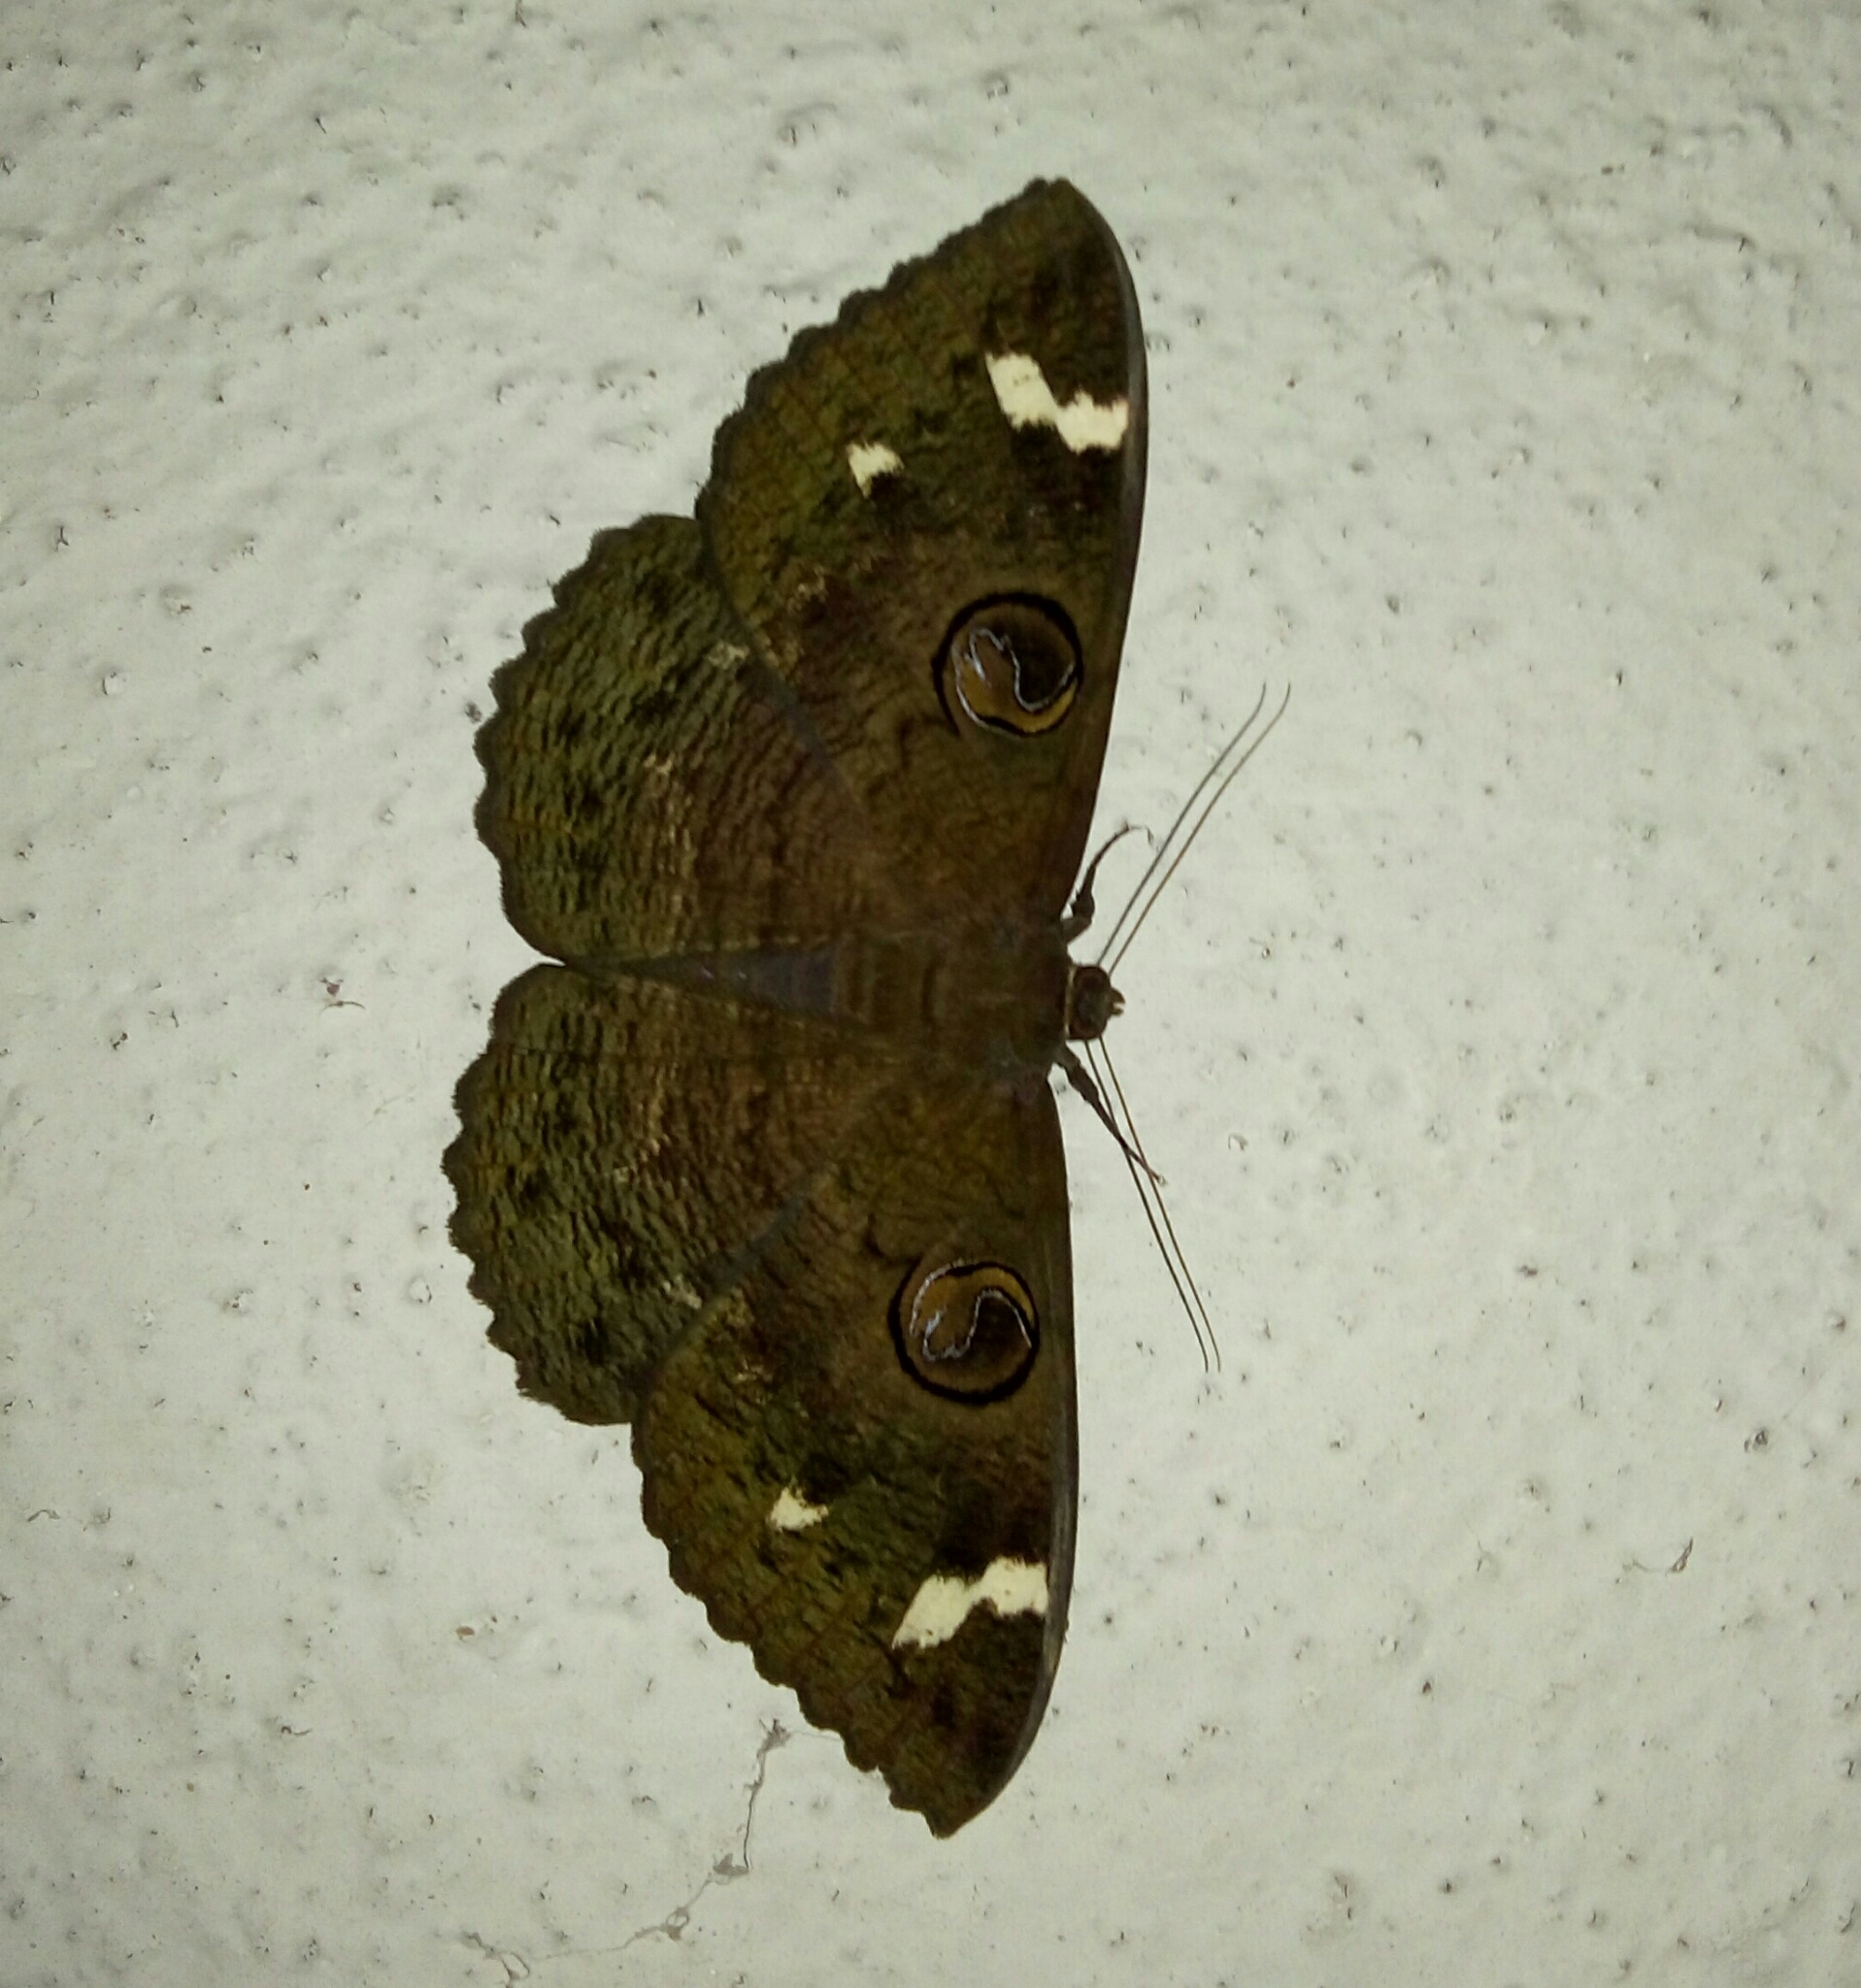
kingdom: Animalia
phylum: Arthropoda
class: Insecta
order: Lepidoptera
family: Erebidae
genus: Erebus
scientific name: Erebus hieroglyphica
